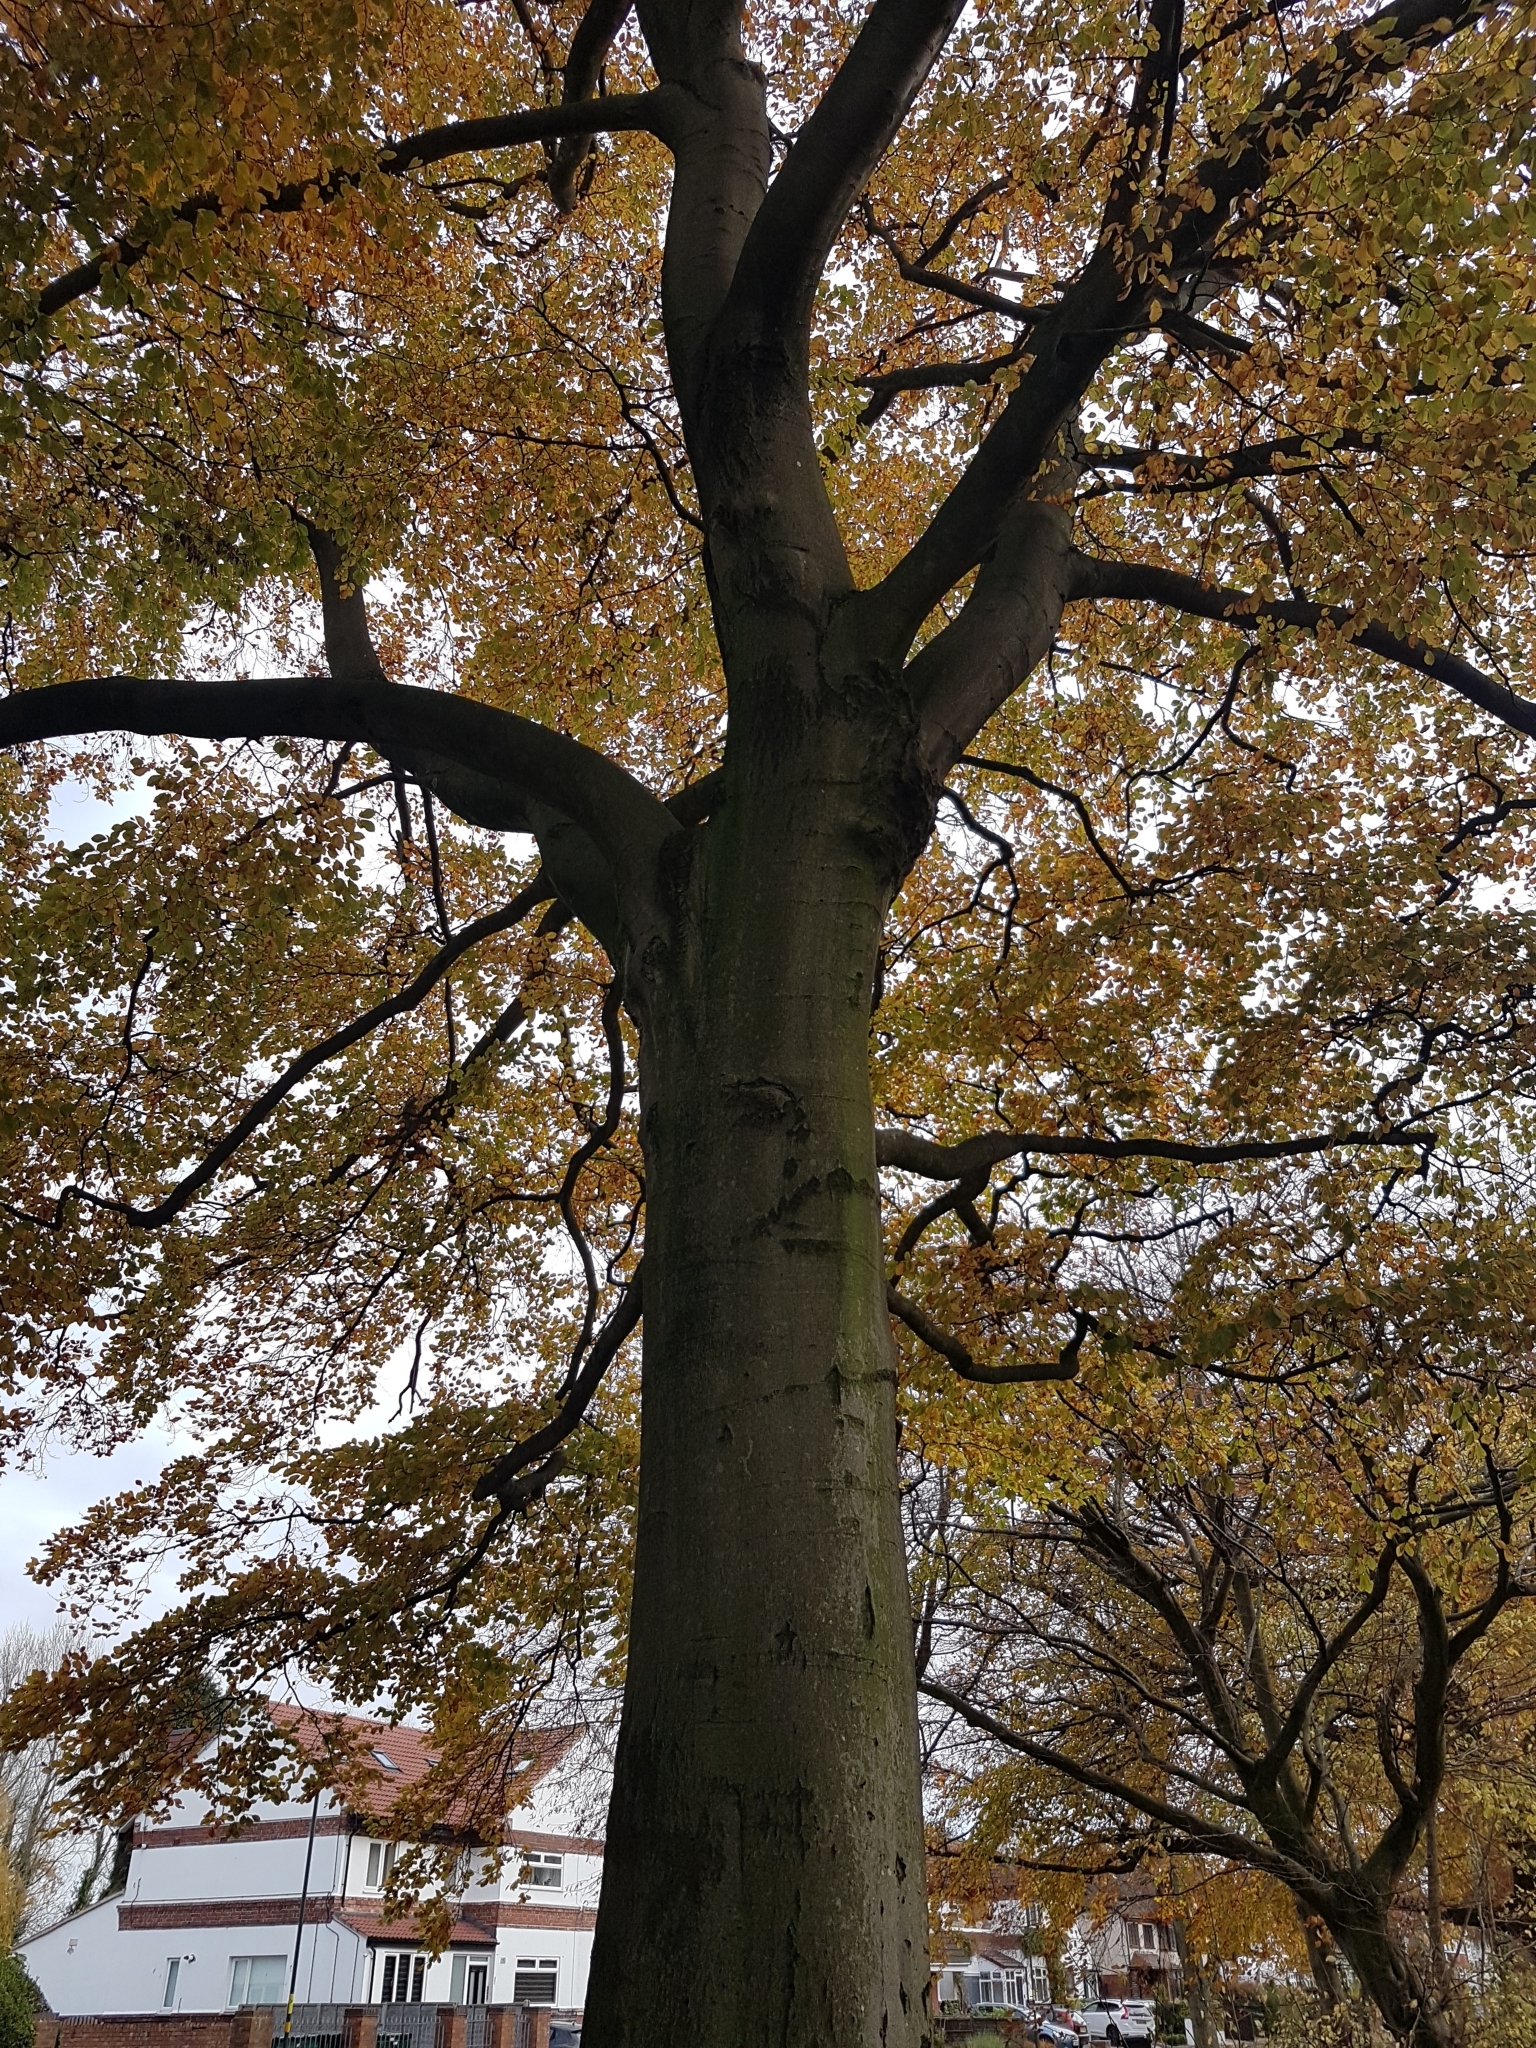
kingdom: Plantae
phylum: Tracheophyta
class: Magnoliopsida
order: Fagales
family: Fagaceae
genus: Fagus
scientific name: Fagus sylvatica
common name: Beech
